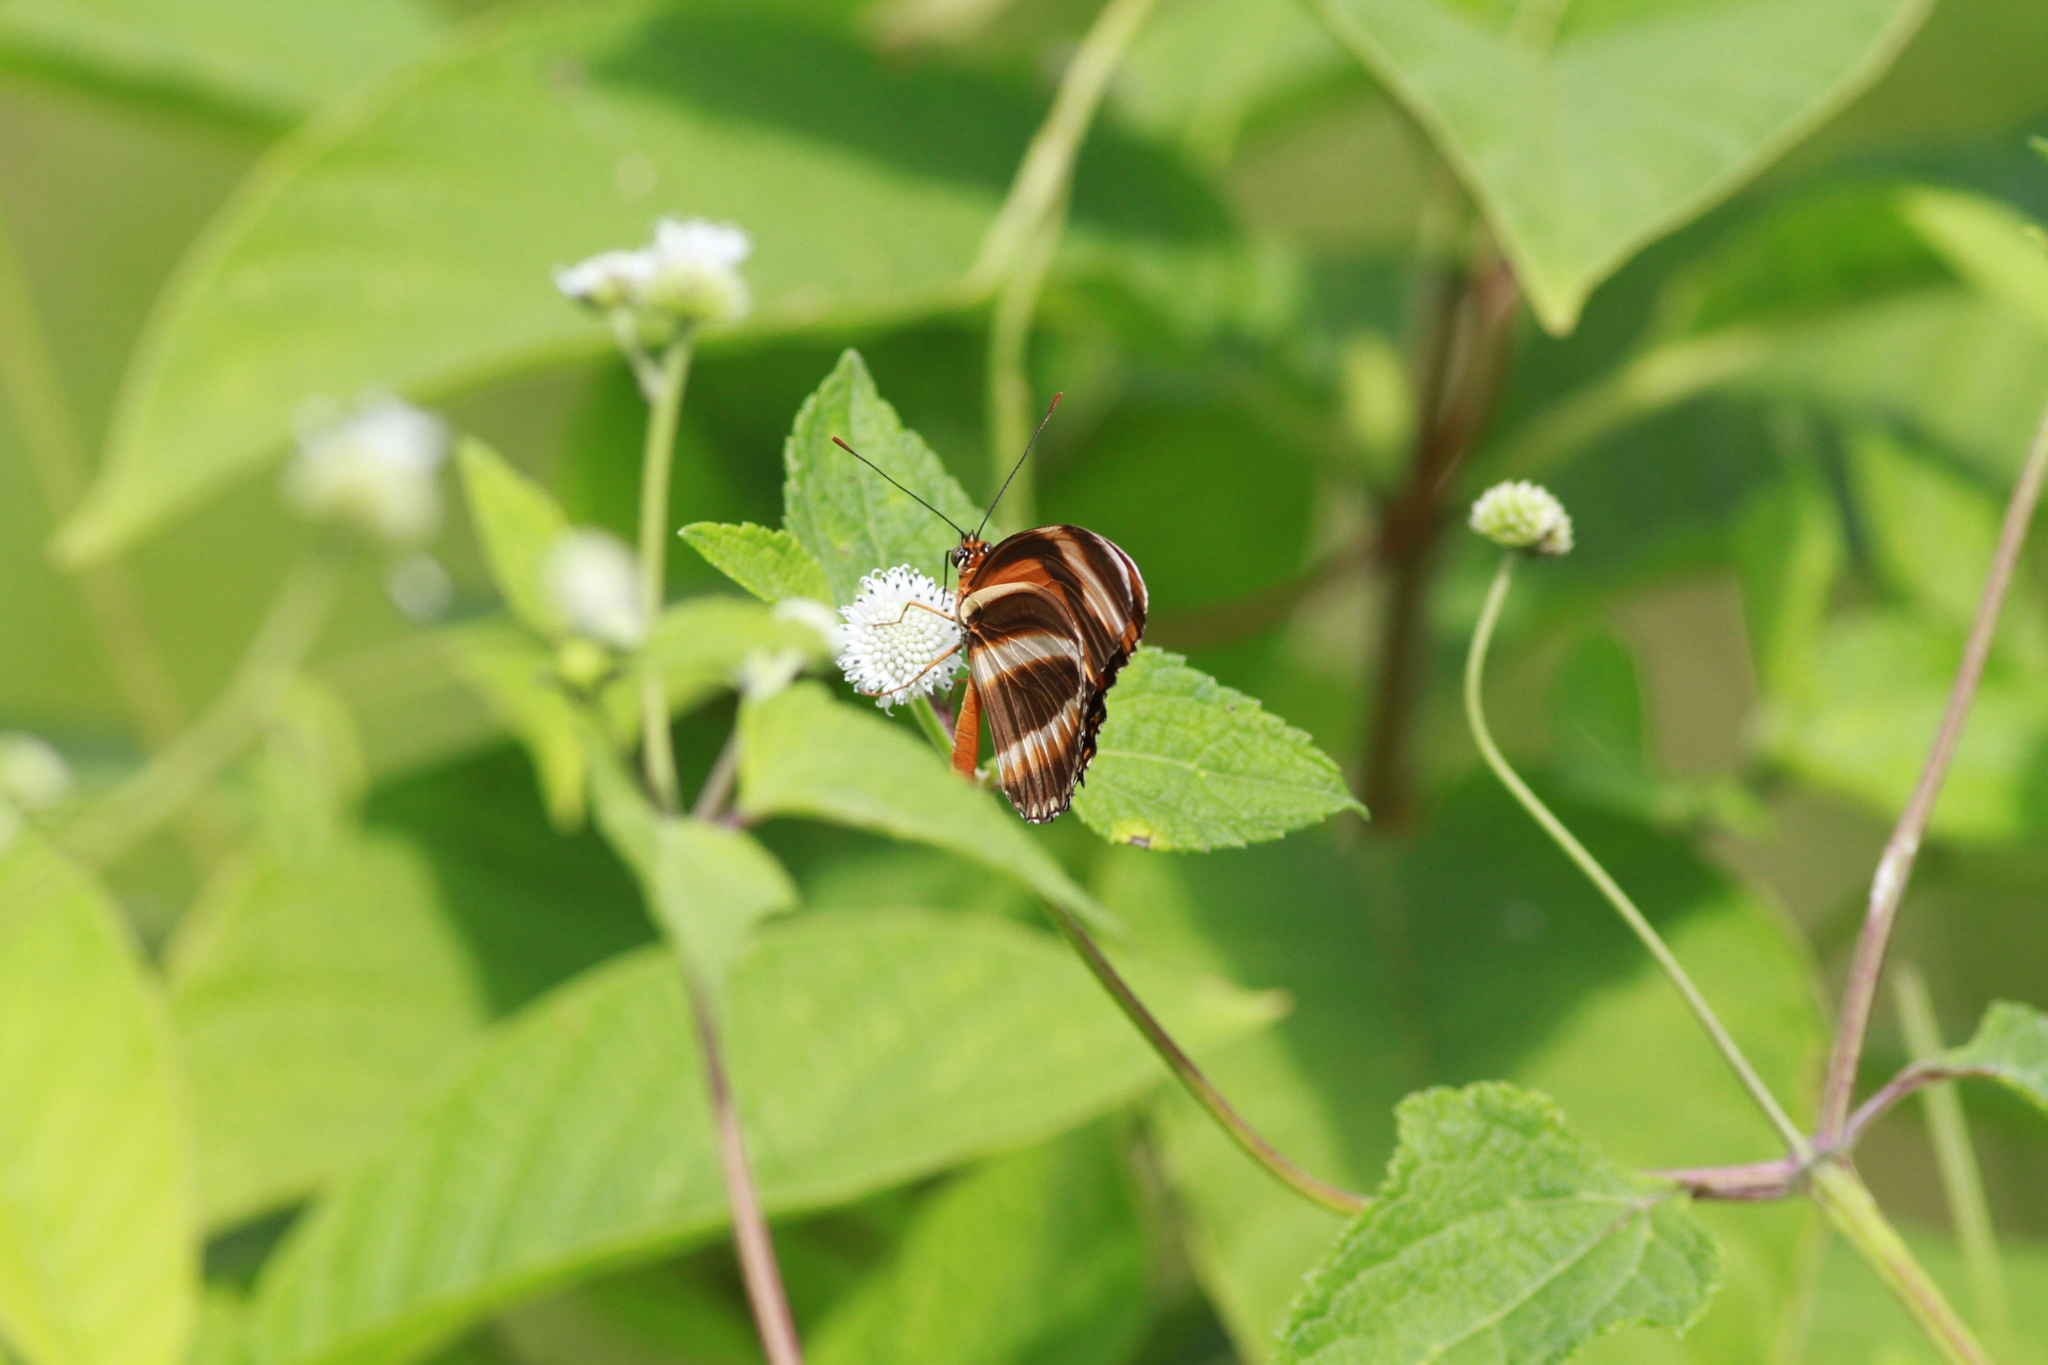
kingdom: Animalia
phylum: Arthropoda
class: Insecta
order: Lepidoptera
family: Nymphalidae
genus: Dryadula
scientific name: Dryadula phaetusa
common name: Banded orange heliconian
